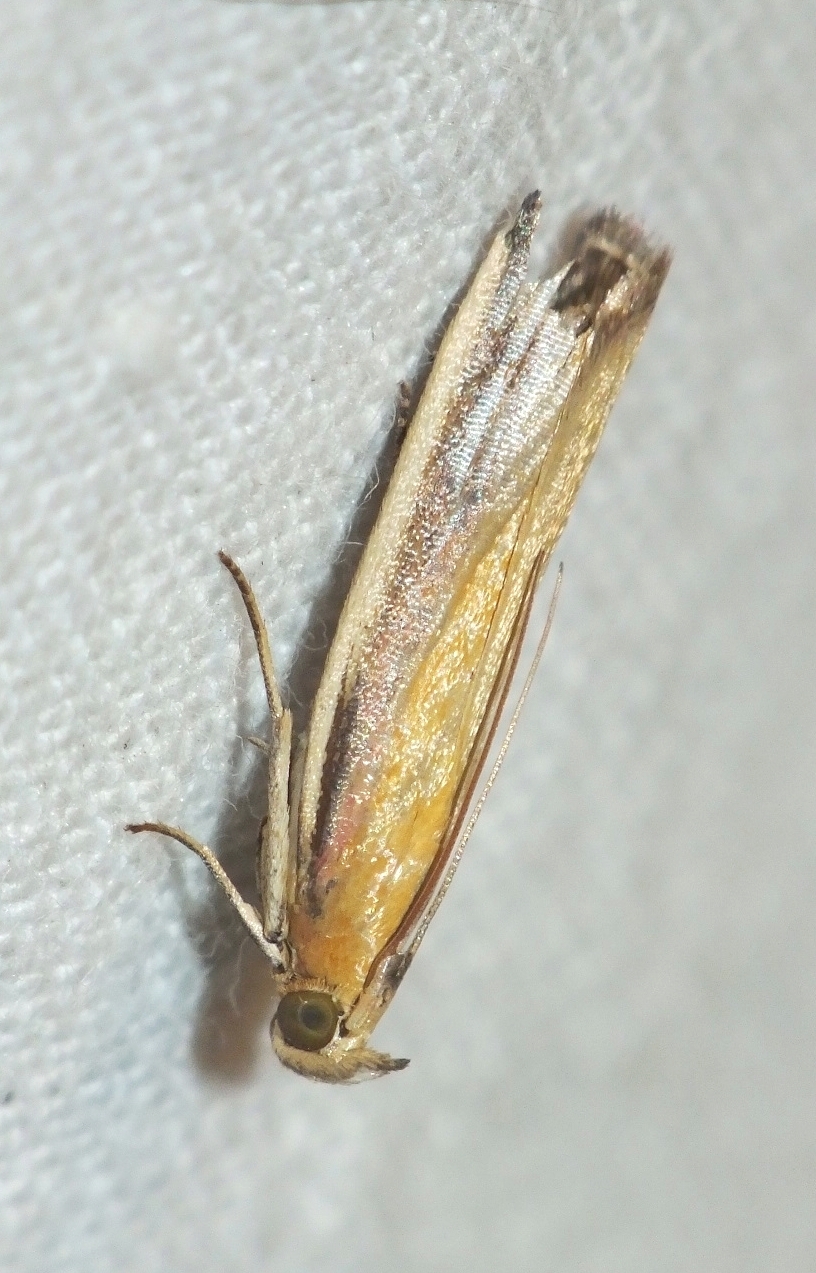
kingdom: Animalia
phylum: Arthropoda
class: Insecta
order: Lepidoptera
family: Pyralidae
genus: Oncocera
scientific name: Oncocera semirubella
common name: Rosy-striped knot-horn
